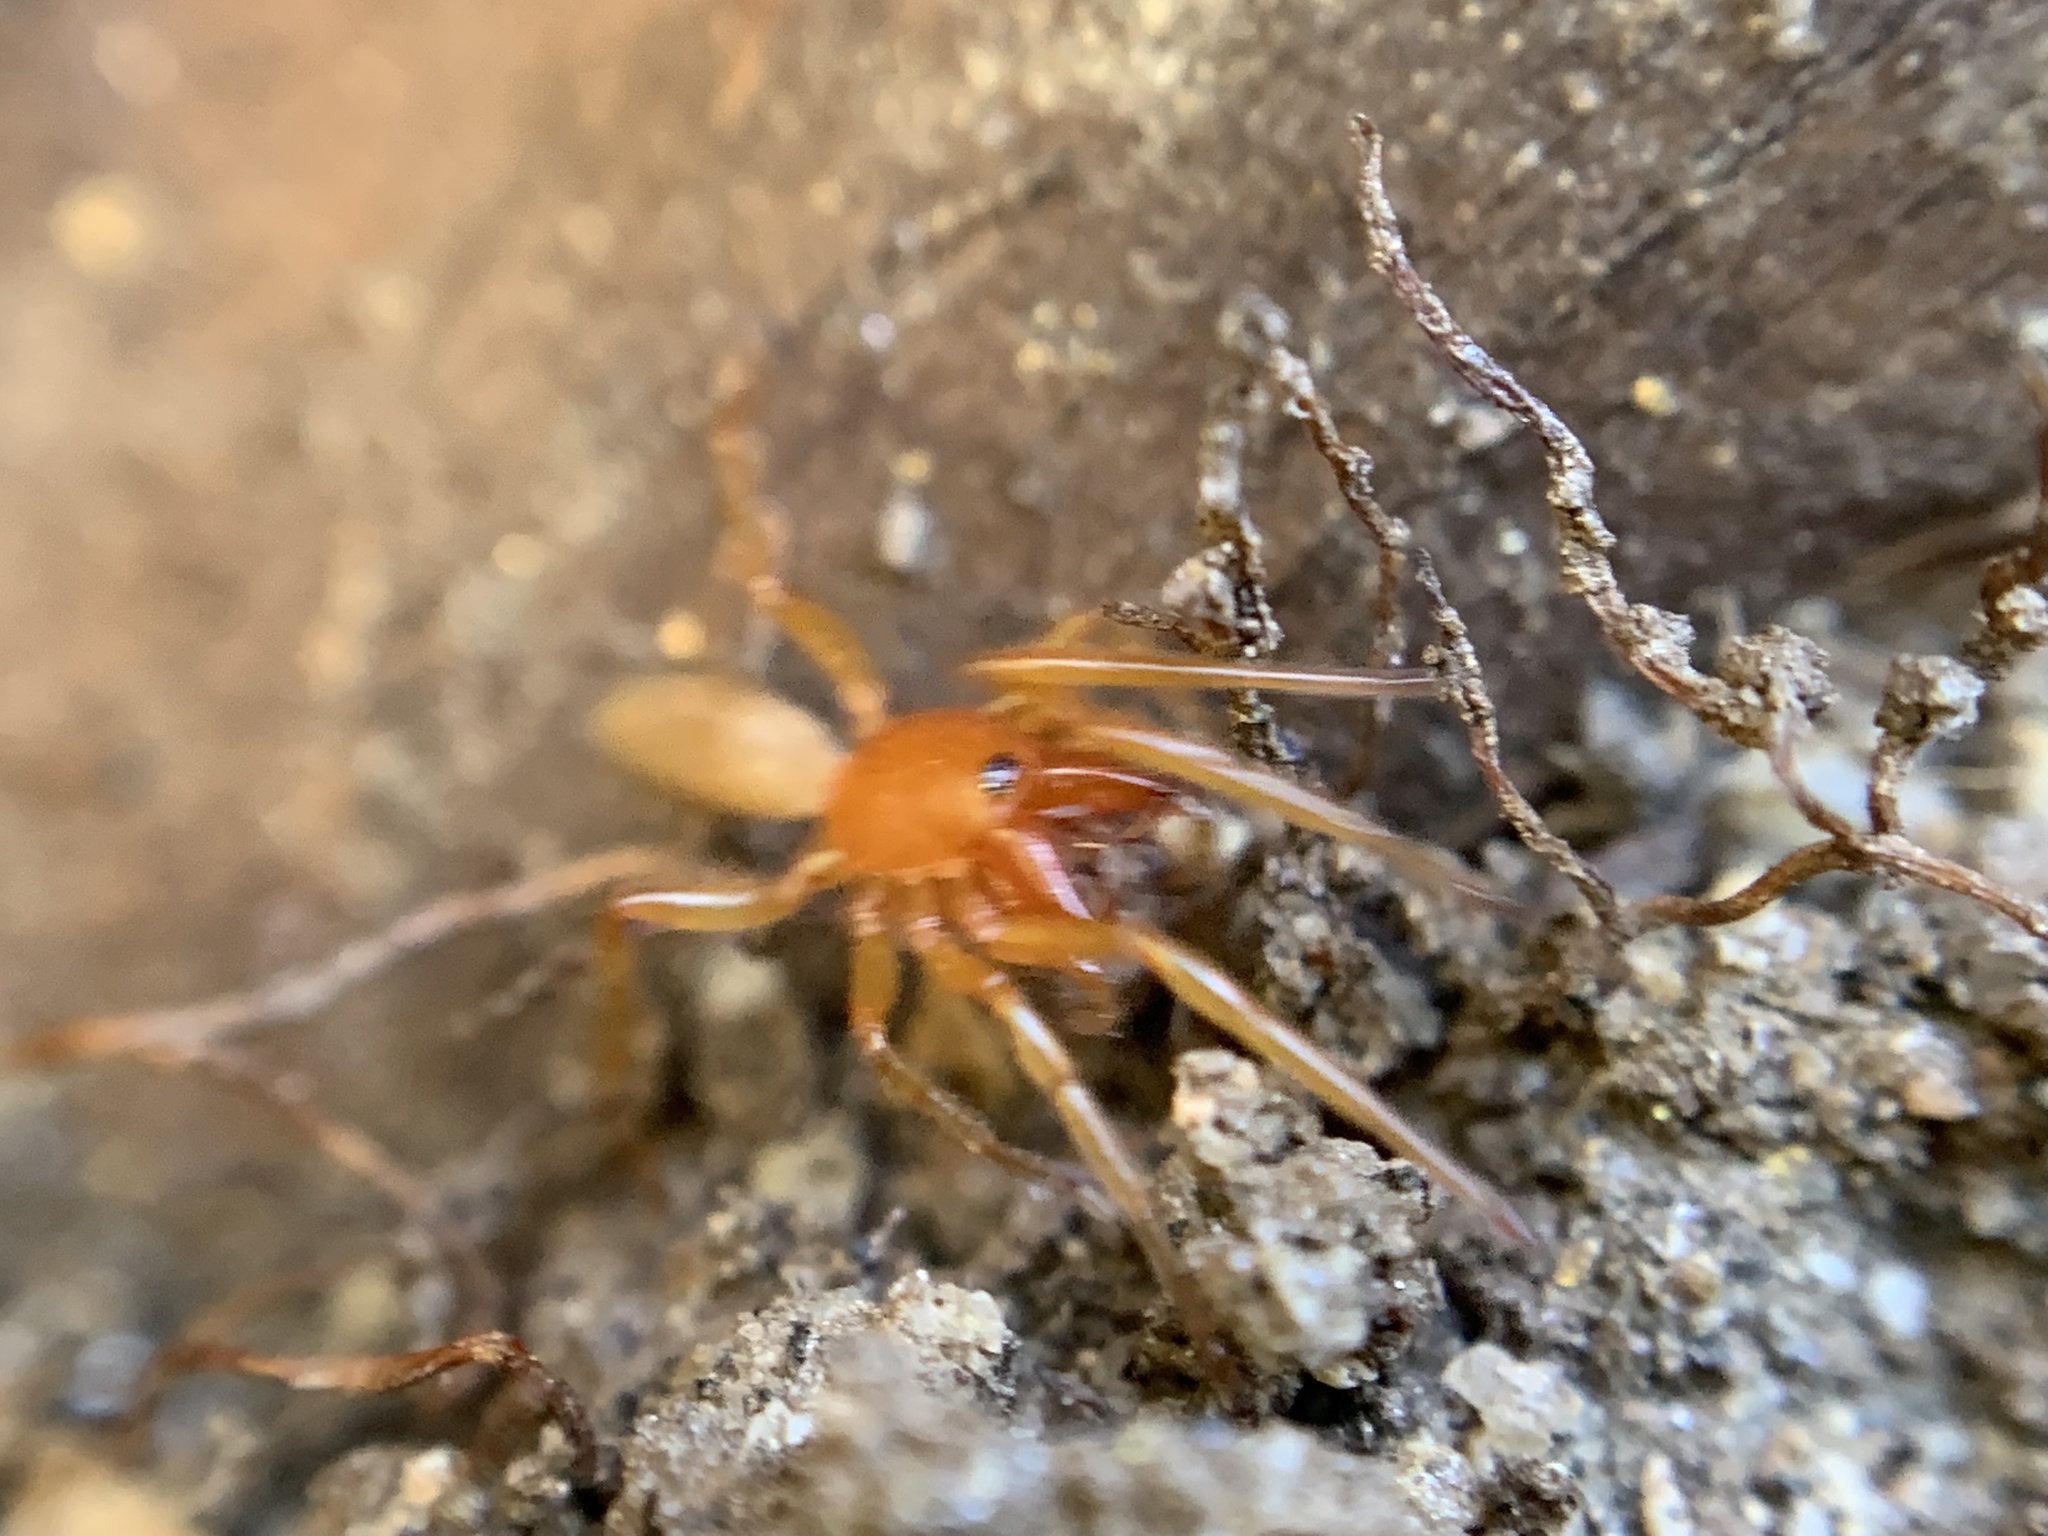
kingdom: Animalia
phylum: Arthropoda
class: Arachnida
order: Araneae
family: Dysderidae
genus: Dysdera
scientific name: Dysdera crocata
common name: Woodlouse spider
